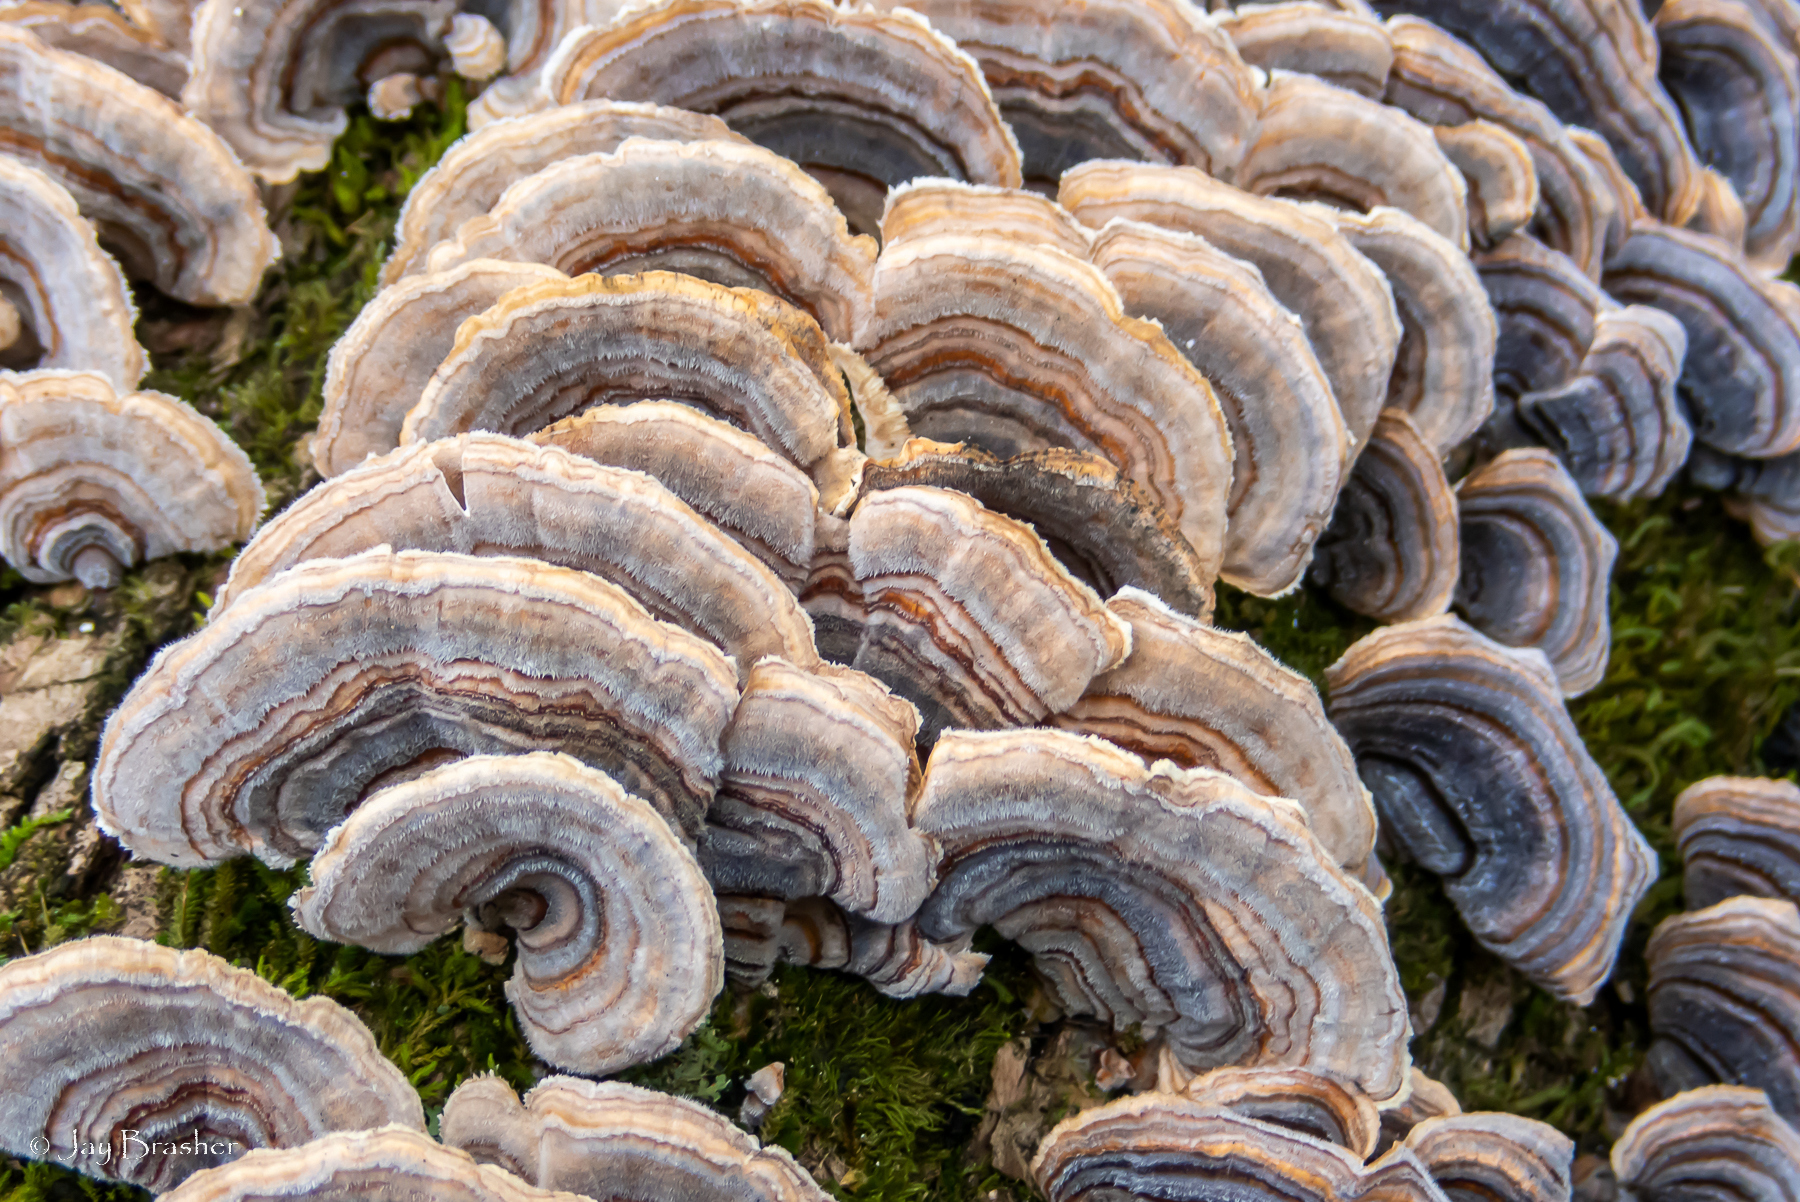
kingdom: Fungi
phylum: Basidiomycota
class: Agaricomycetes
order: Polyporales
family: Polyporaceae
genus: Trametes
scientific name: Trametes versicolor
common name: Turkeytail
